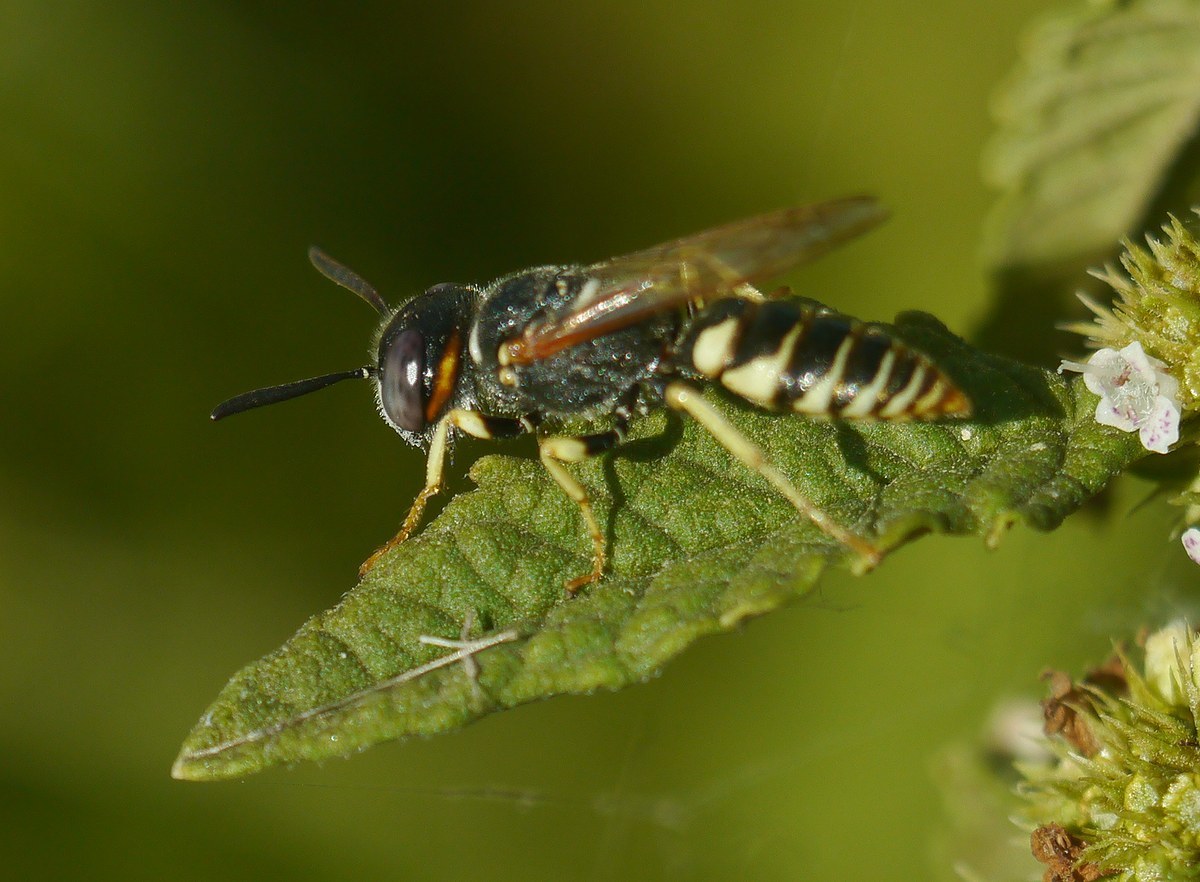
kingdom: Animalia
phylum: Arthropoda
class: Insecta
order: Hymenoptera
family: Crabronidae
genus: Philanthus
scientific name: Philanthus triangulum
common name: Bee wolf
